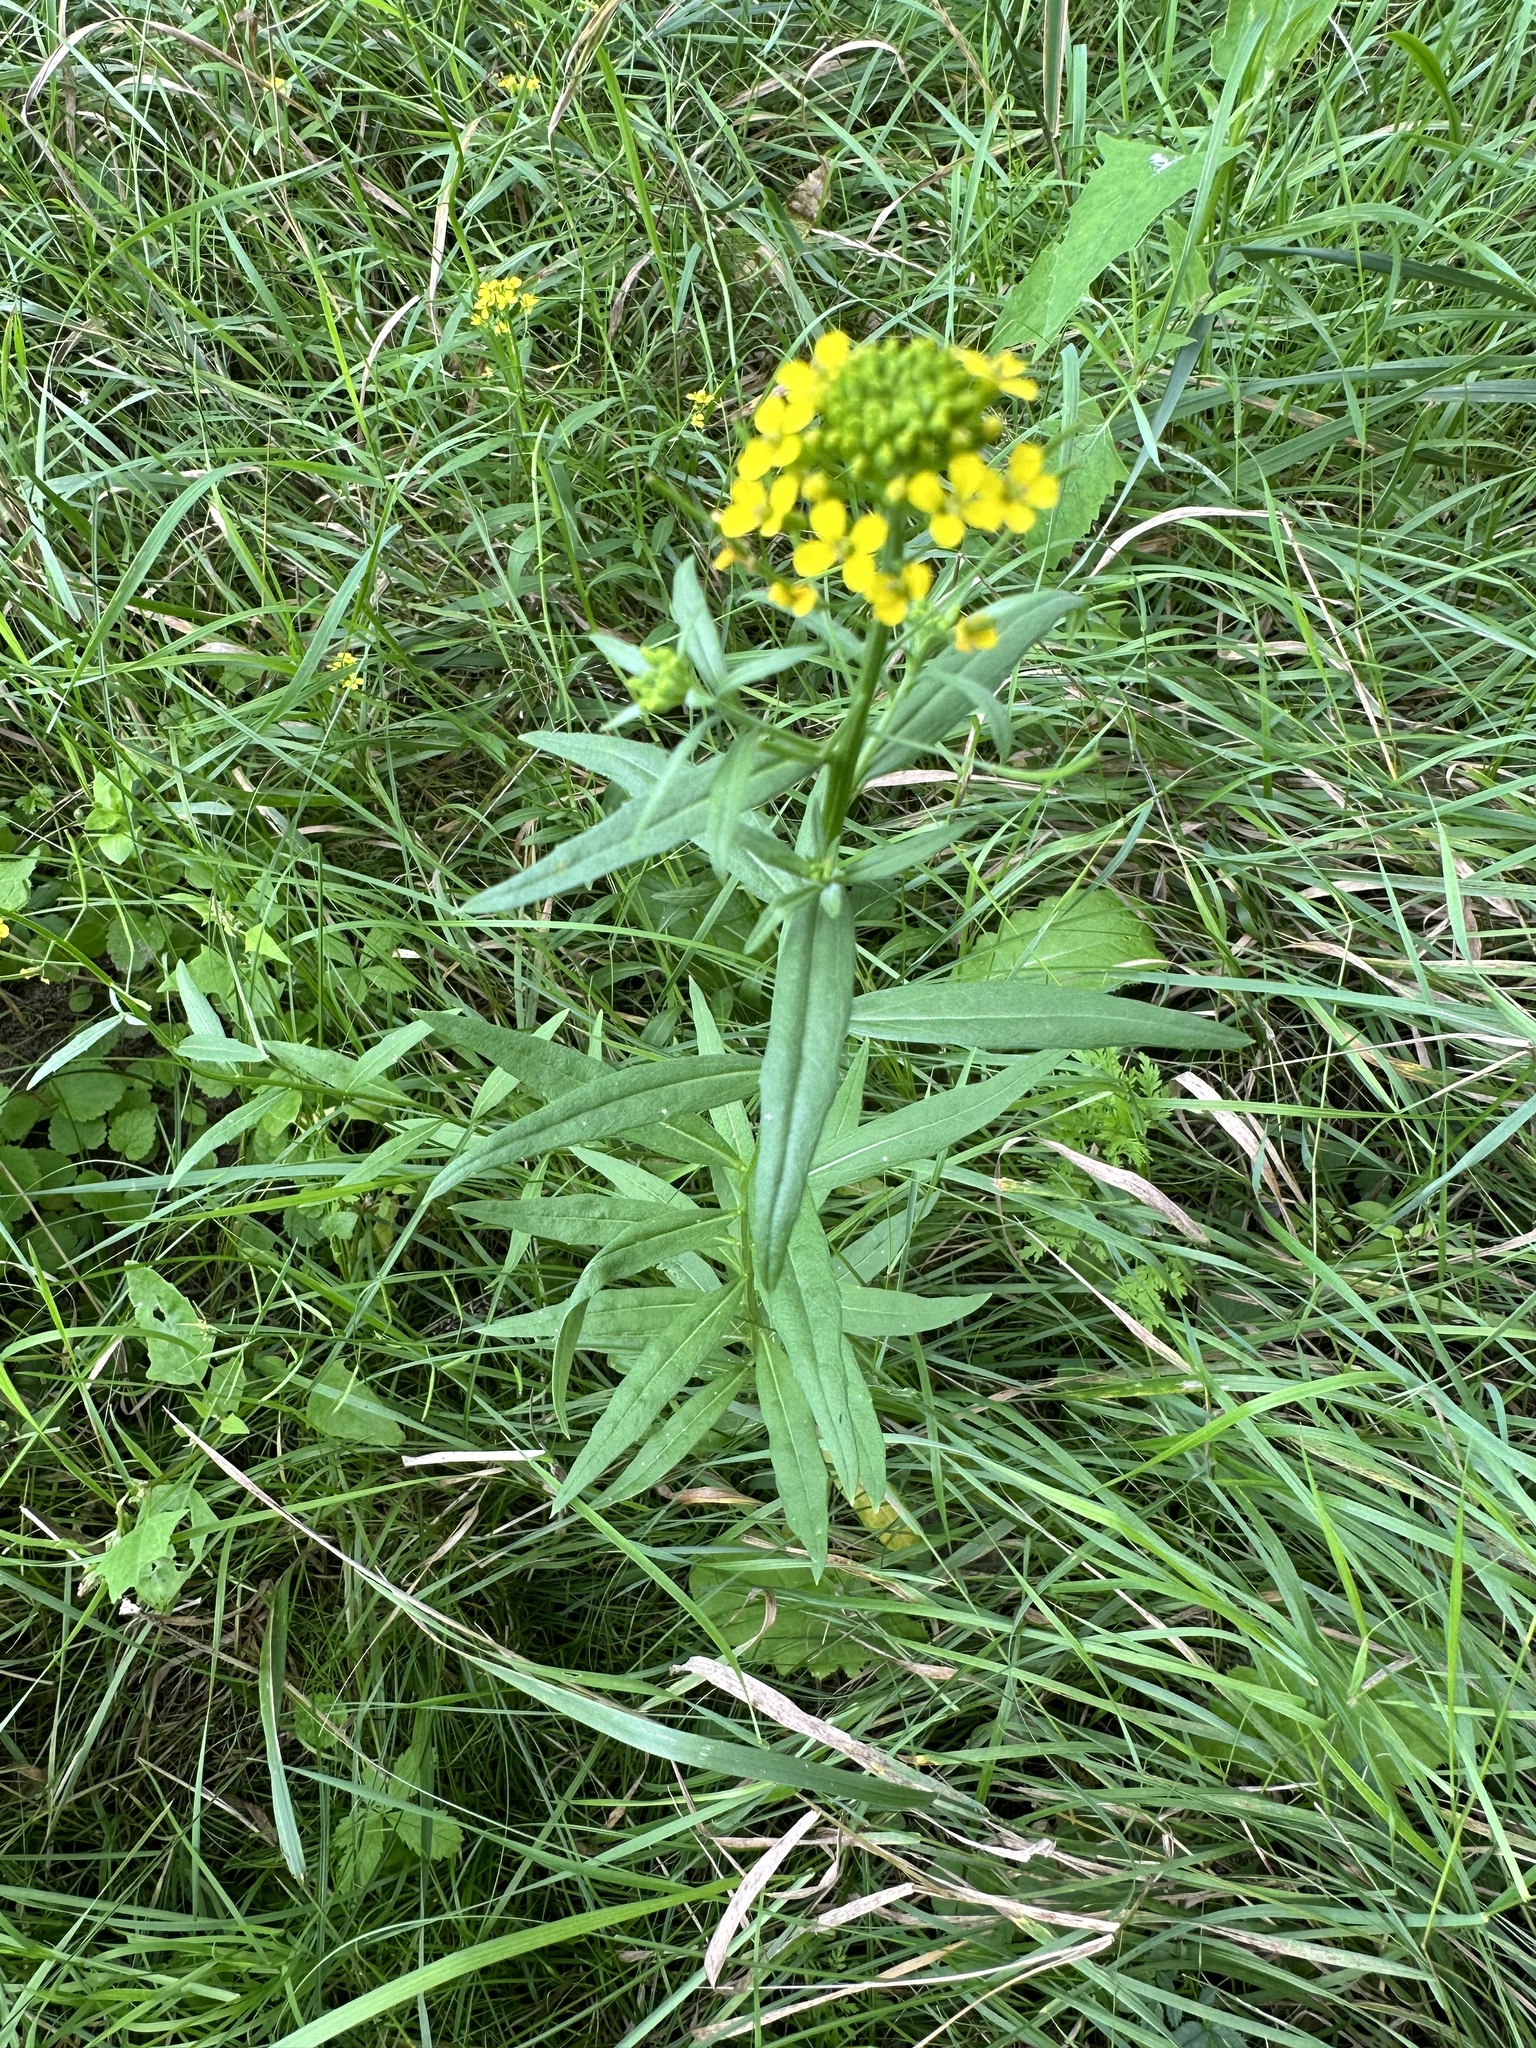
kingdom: Plantae
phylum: Tracheophyta
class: Magnoliopsida
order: Brassicales
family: Brassicaceae
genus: Erysimum
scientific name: Erysimum cheiranthoides
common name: Treacle mustard
